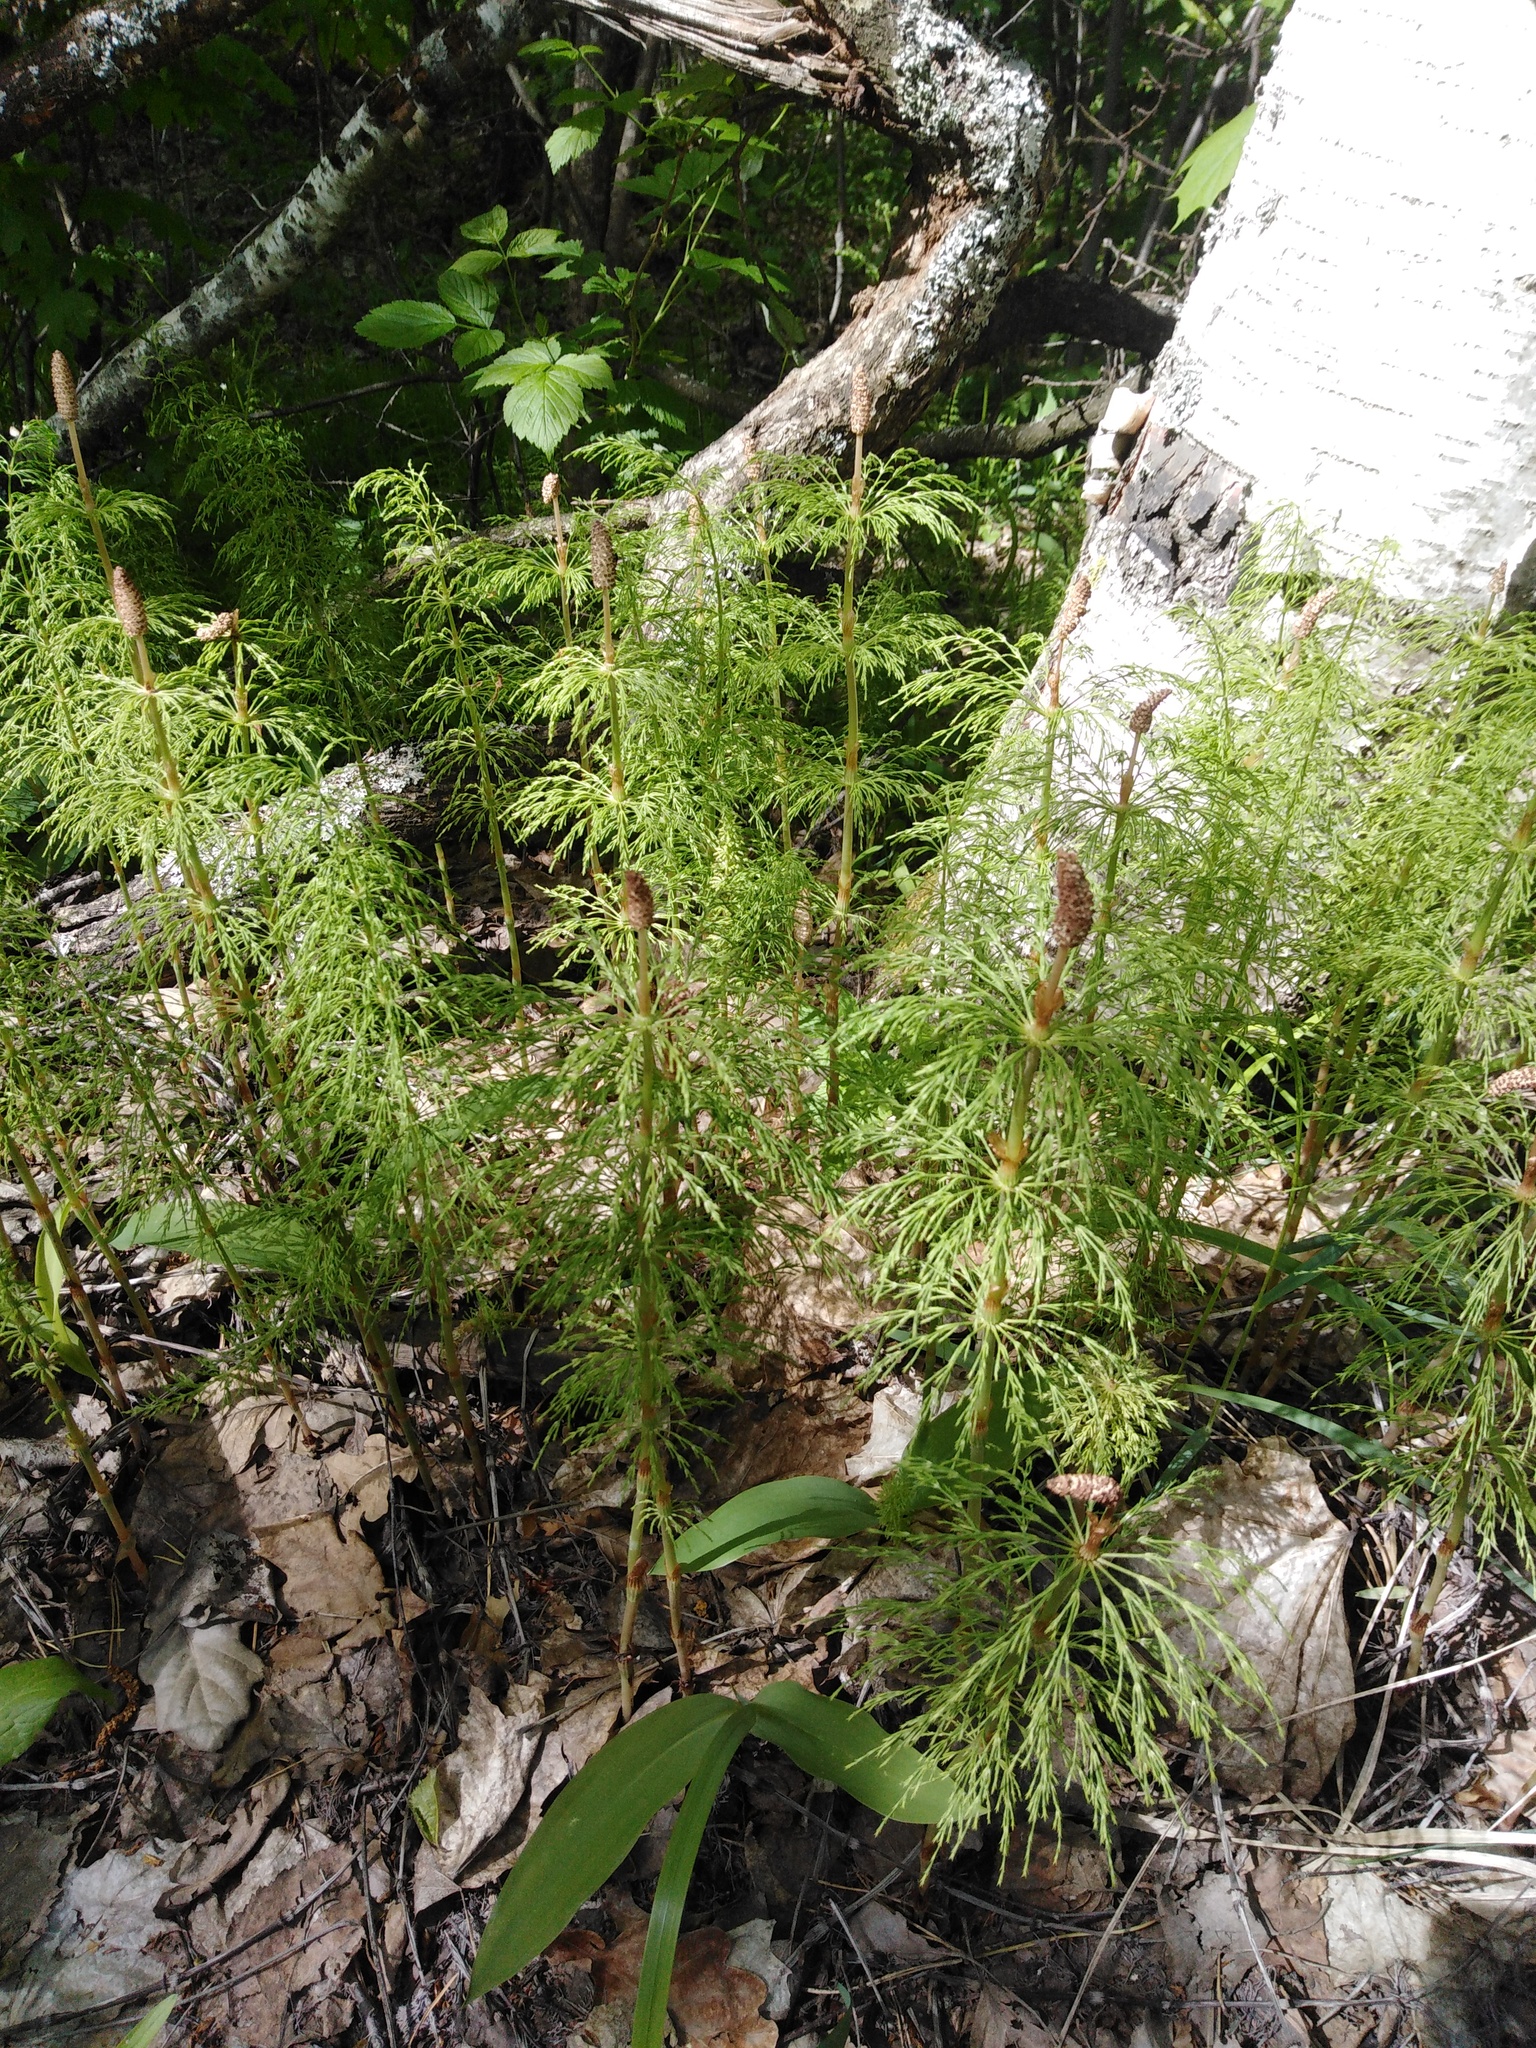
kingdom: Plantae
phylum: Tracheophyta
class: Polypodiopsida
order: Equisetales
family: Equisetaceae
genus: Equisetum
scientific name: Equisetum sylvaticum
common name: Wood horsetail
